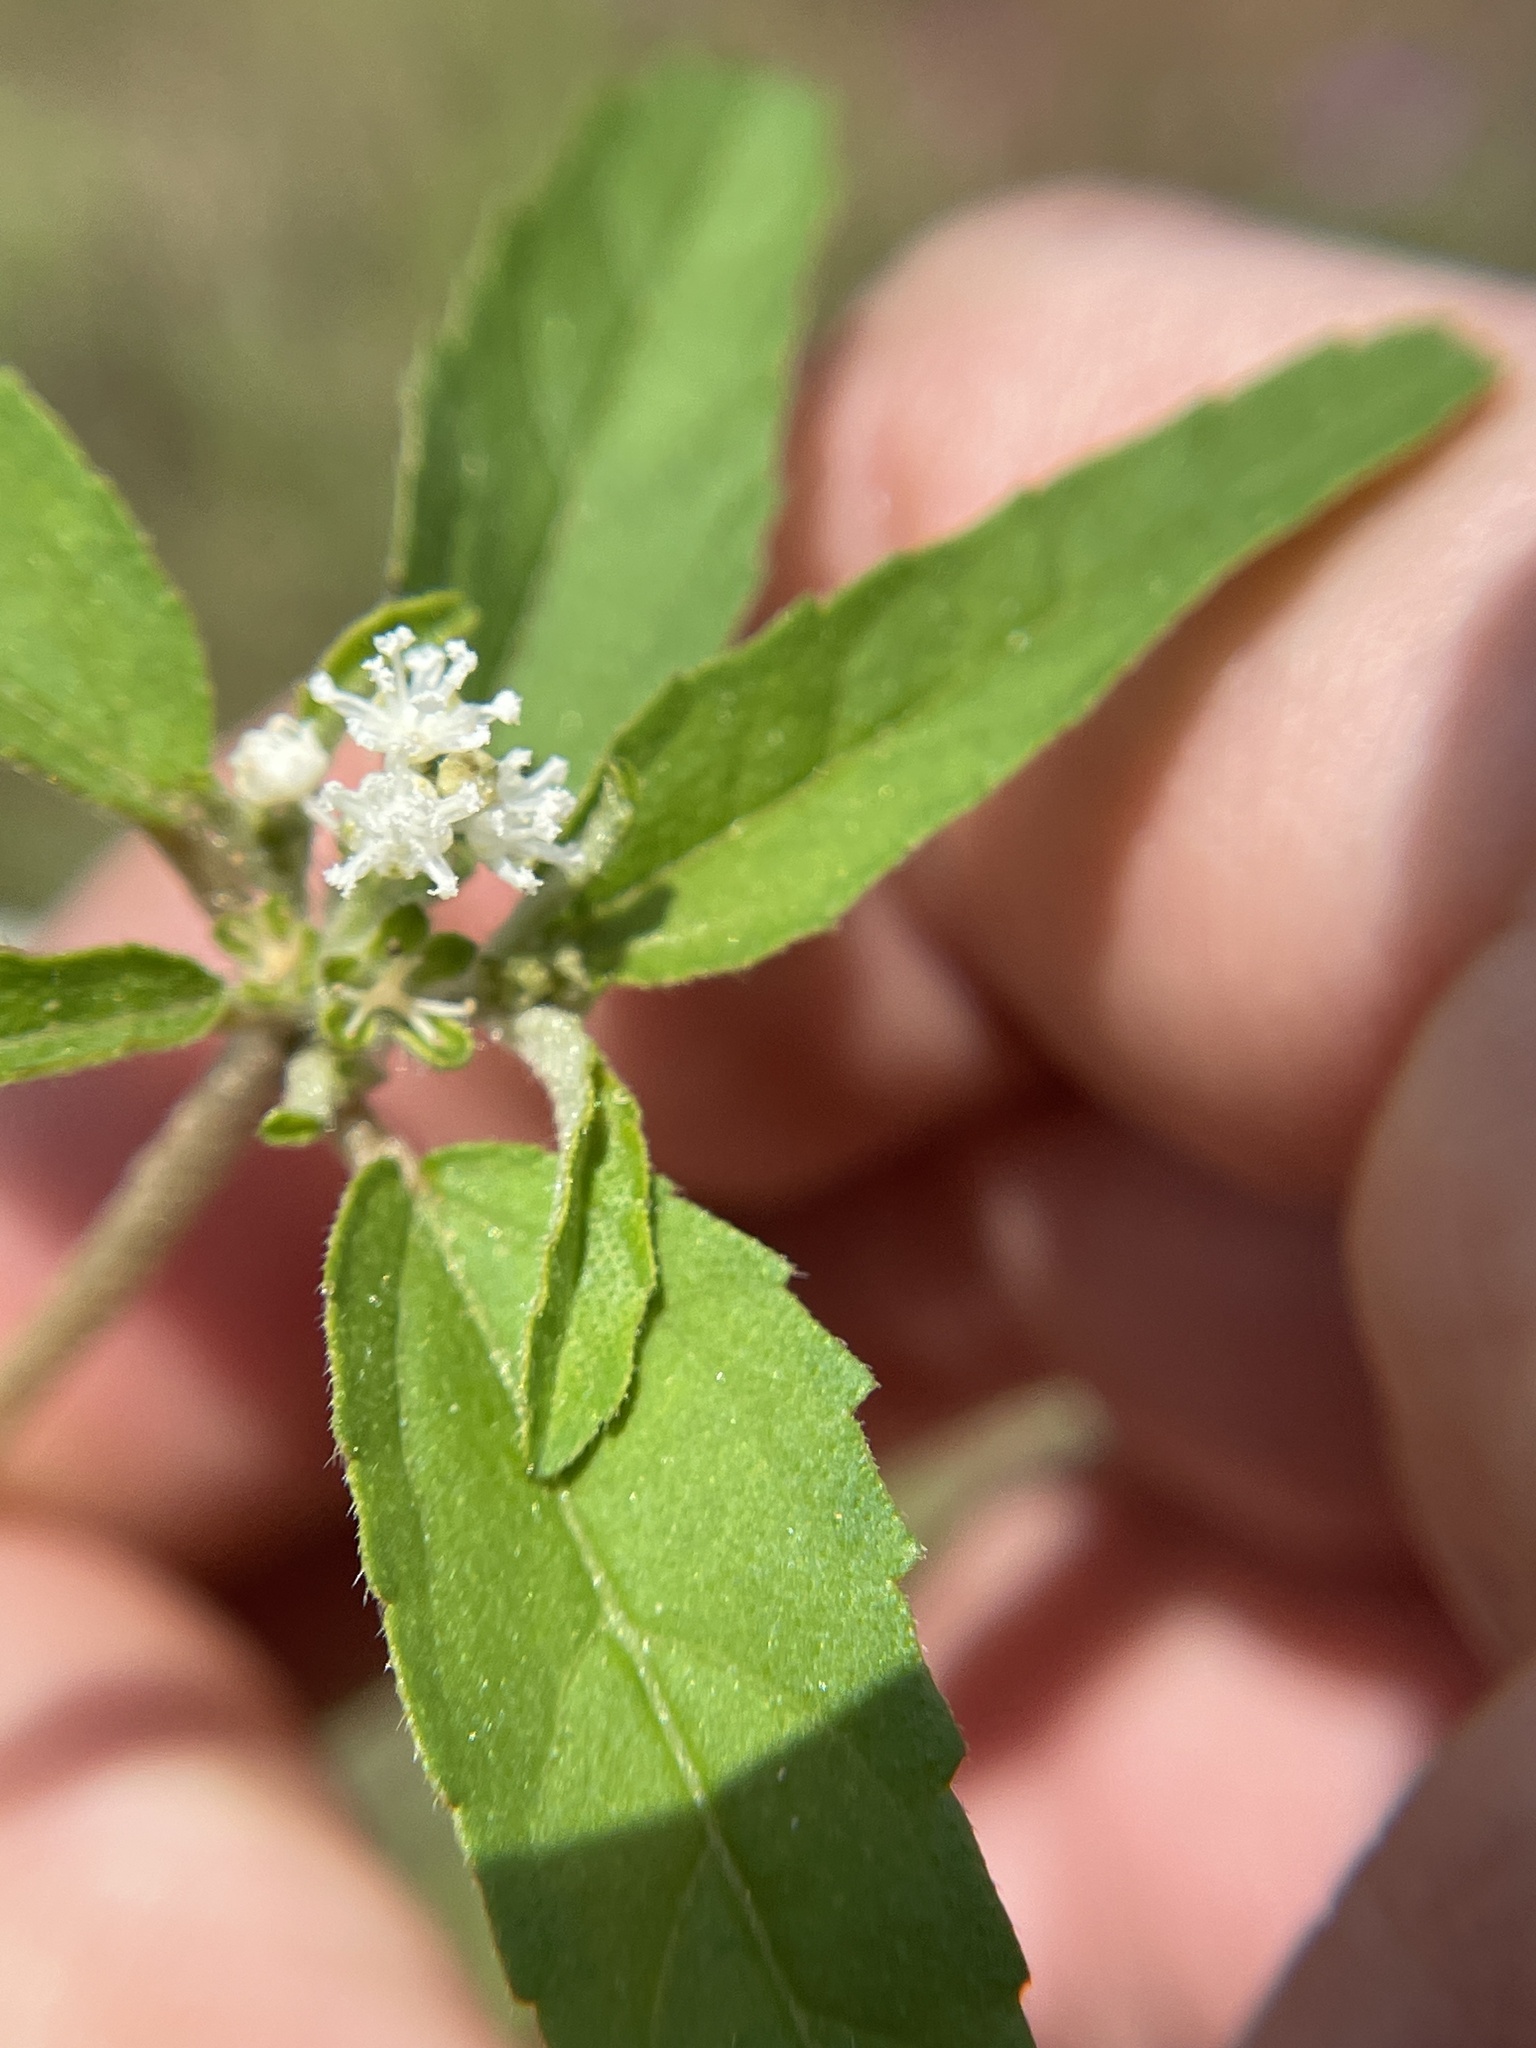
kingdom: Plantae
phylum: Tracheophyta
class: Magnoliopsida
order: Malpighiales
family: Euphorbiaceae
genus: Croton
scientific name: Croton glandulosus
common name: Tropic croton
